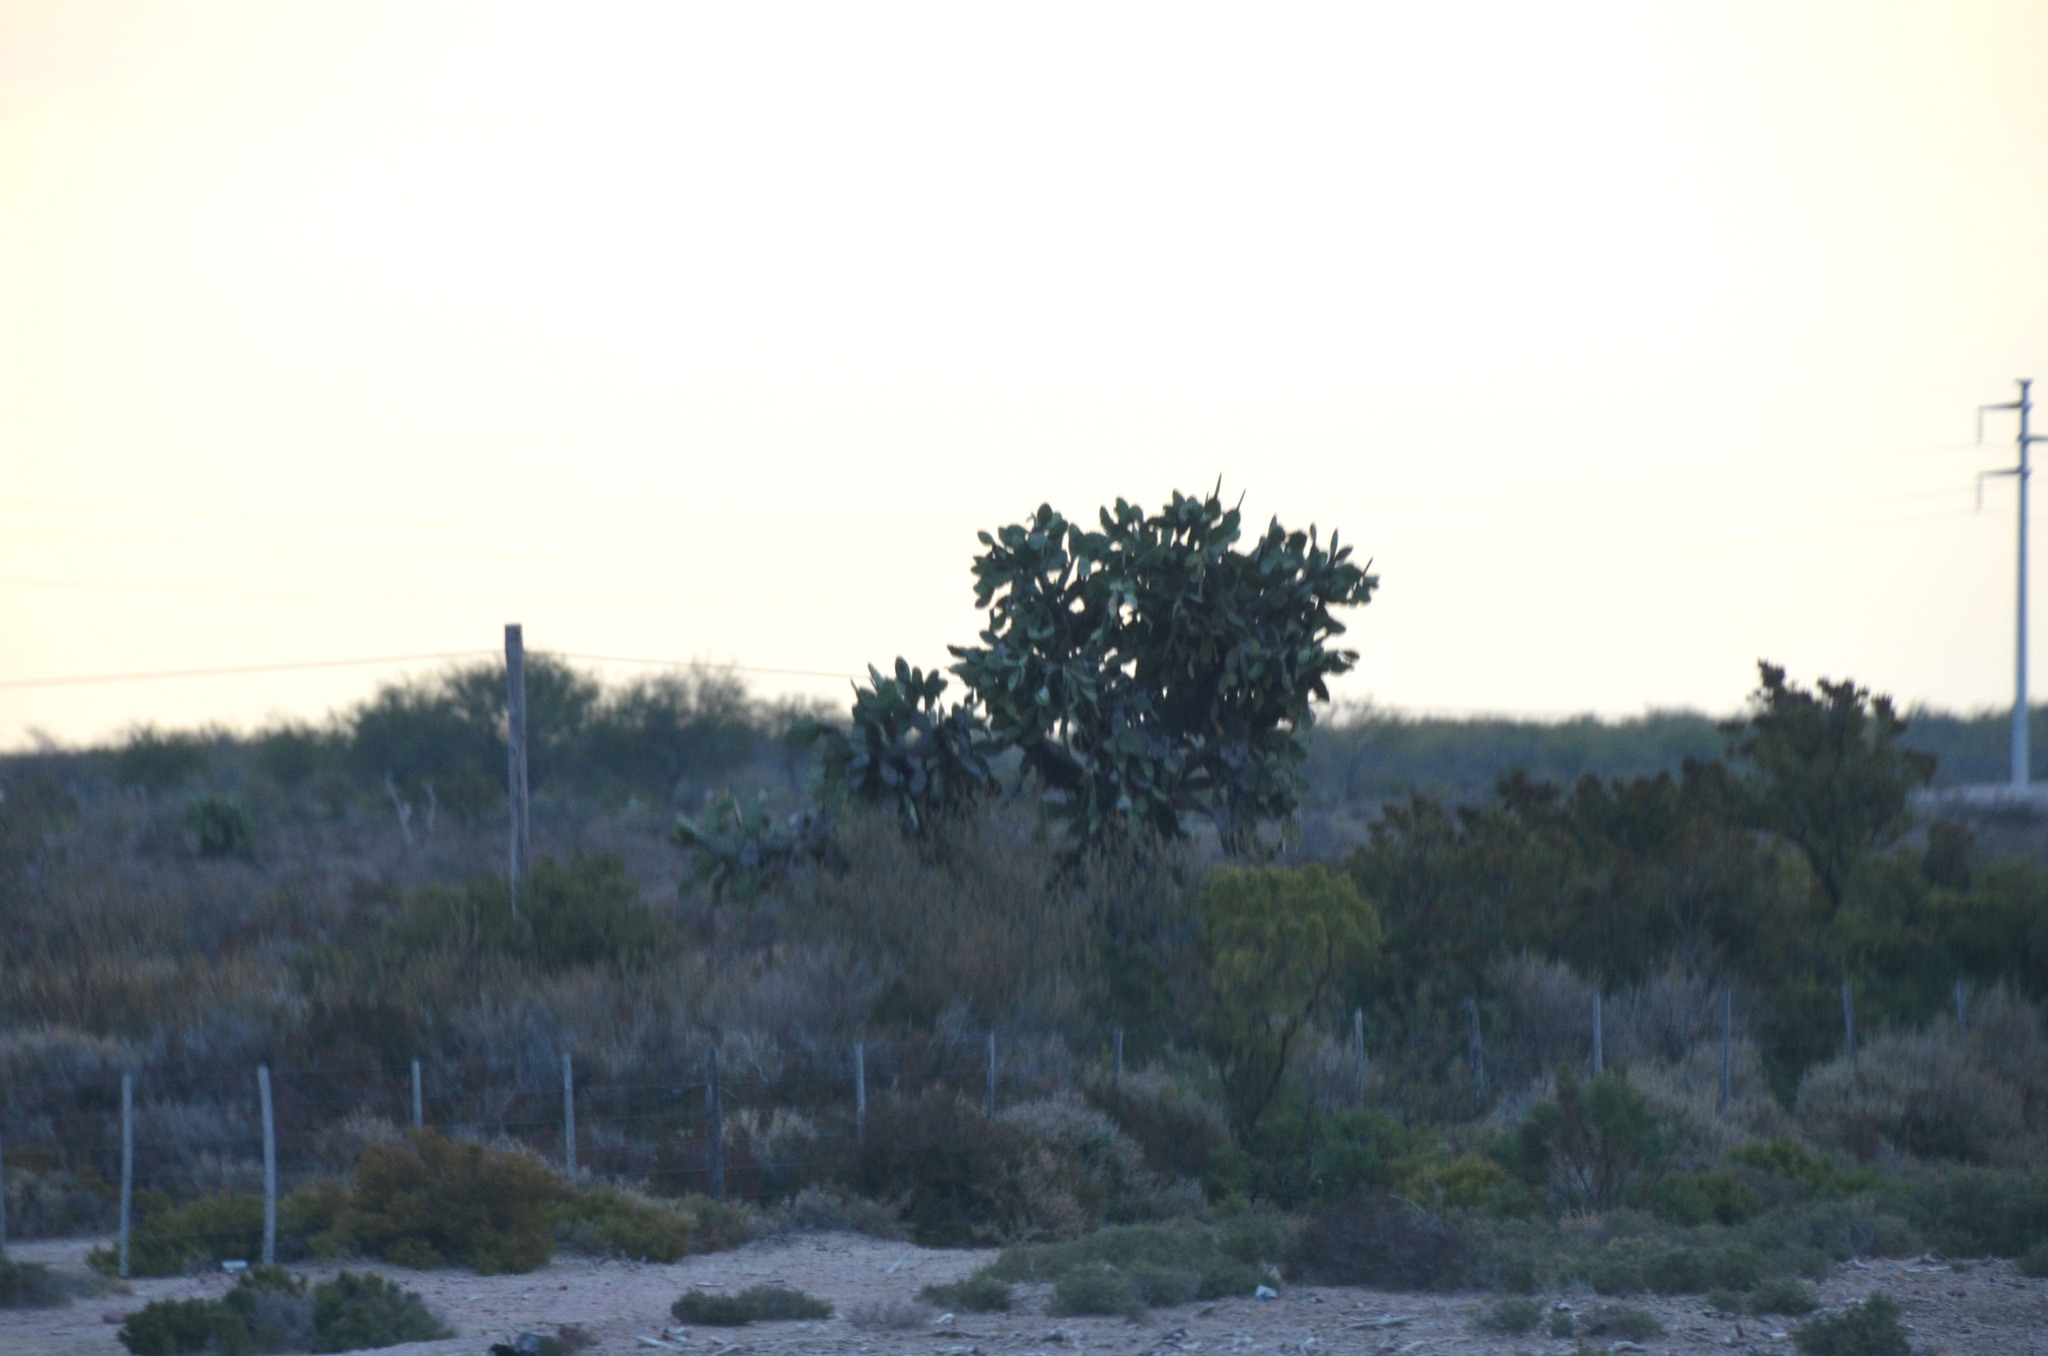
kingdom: Plantae
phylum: Tracheophyta
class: Magnoliopsida
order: Caryophyllales
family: Cactaceae
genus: Opuntia
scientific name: Opuntia quimilo
